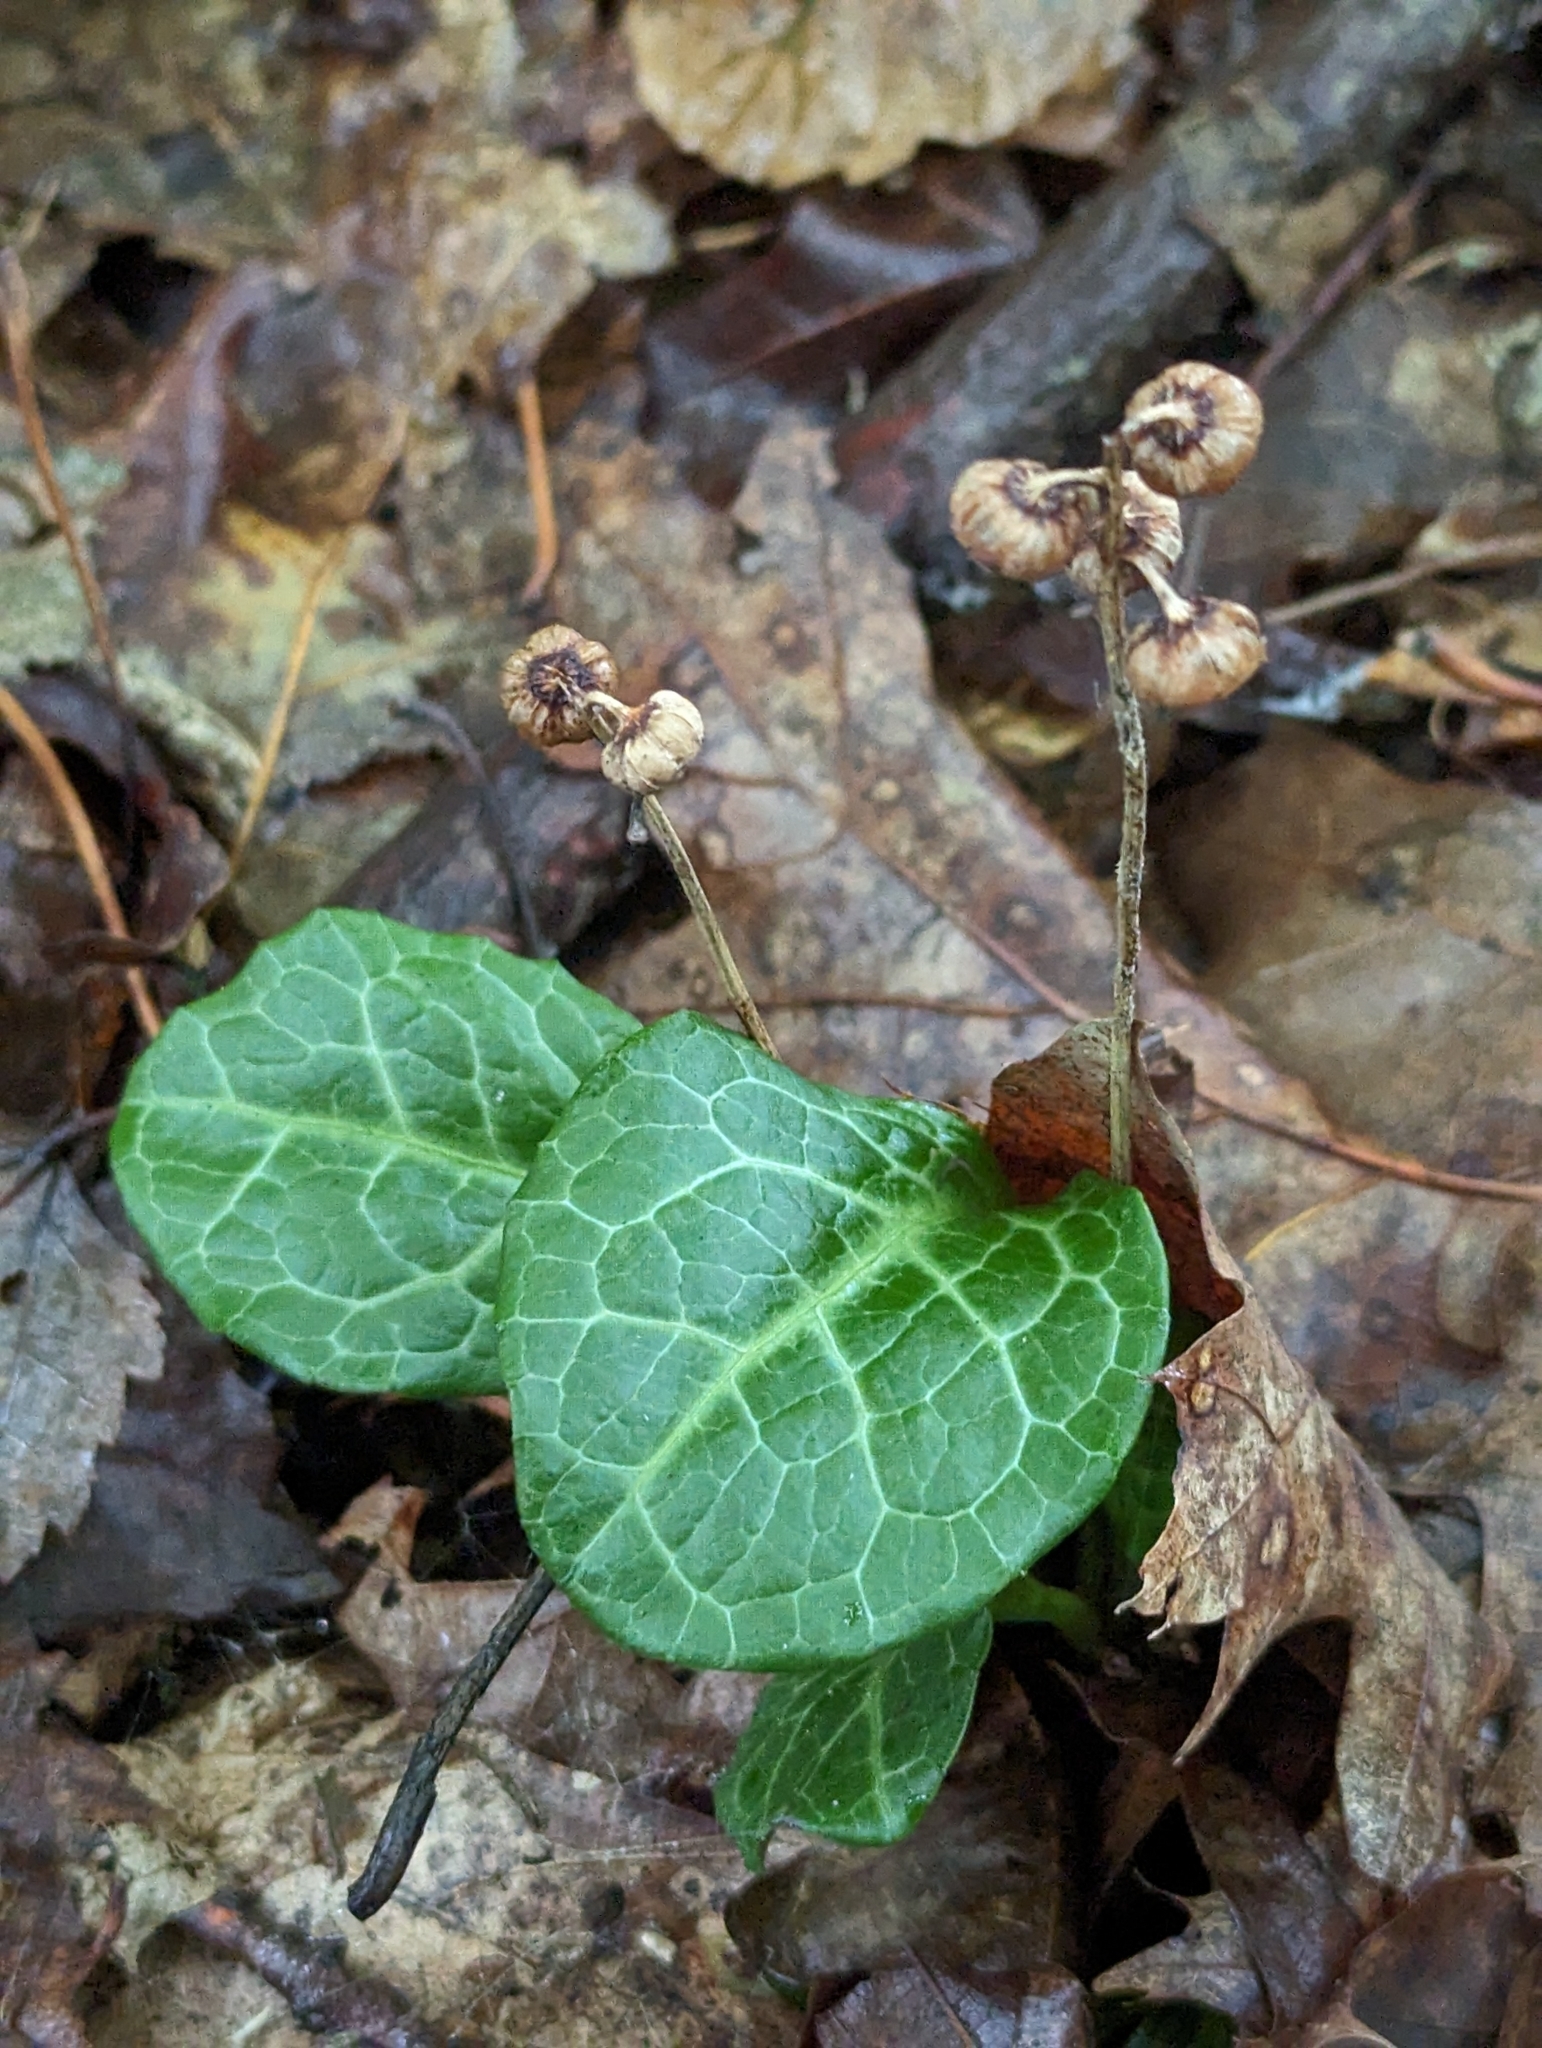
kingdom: Plantae
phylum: Tracheophyta
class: Magnoliopsida
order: Ericales
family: Ericaceae
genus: Pyrola
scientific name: Pyrola americana
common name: American wintergreen
